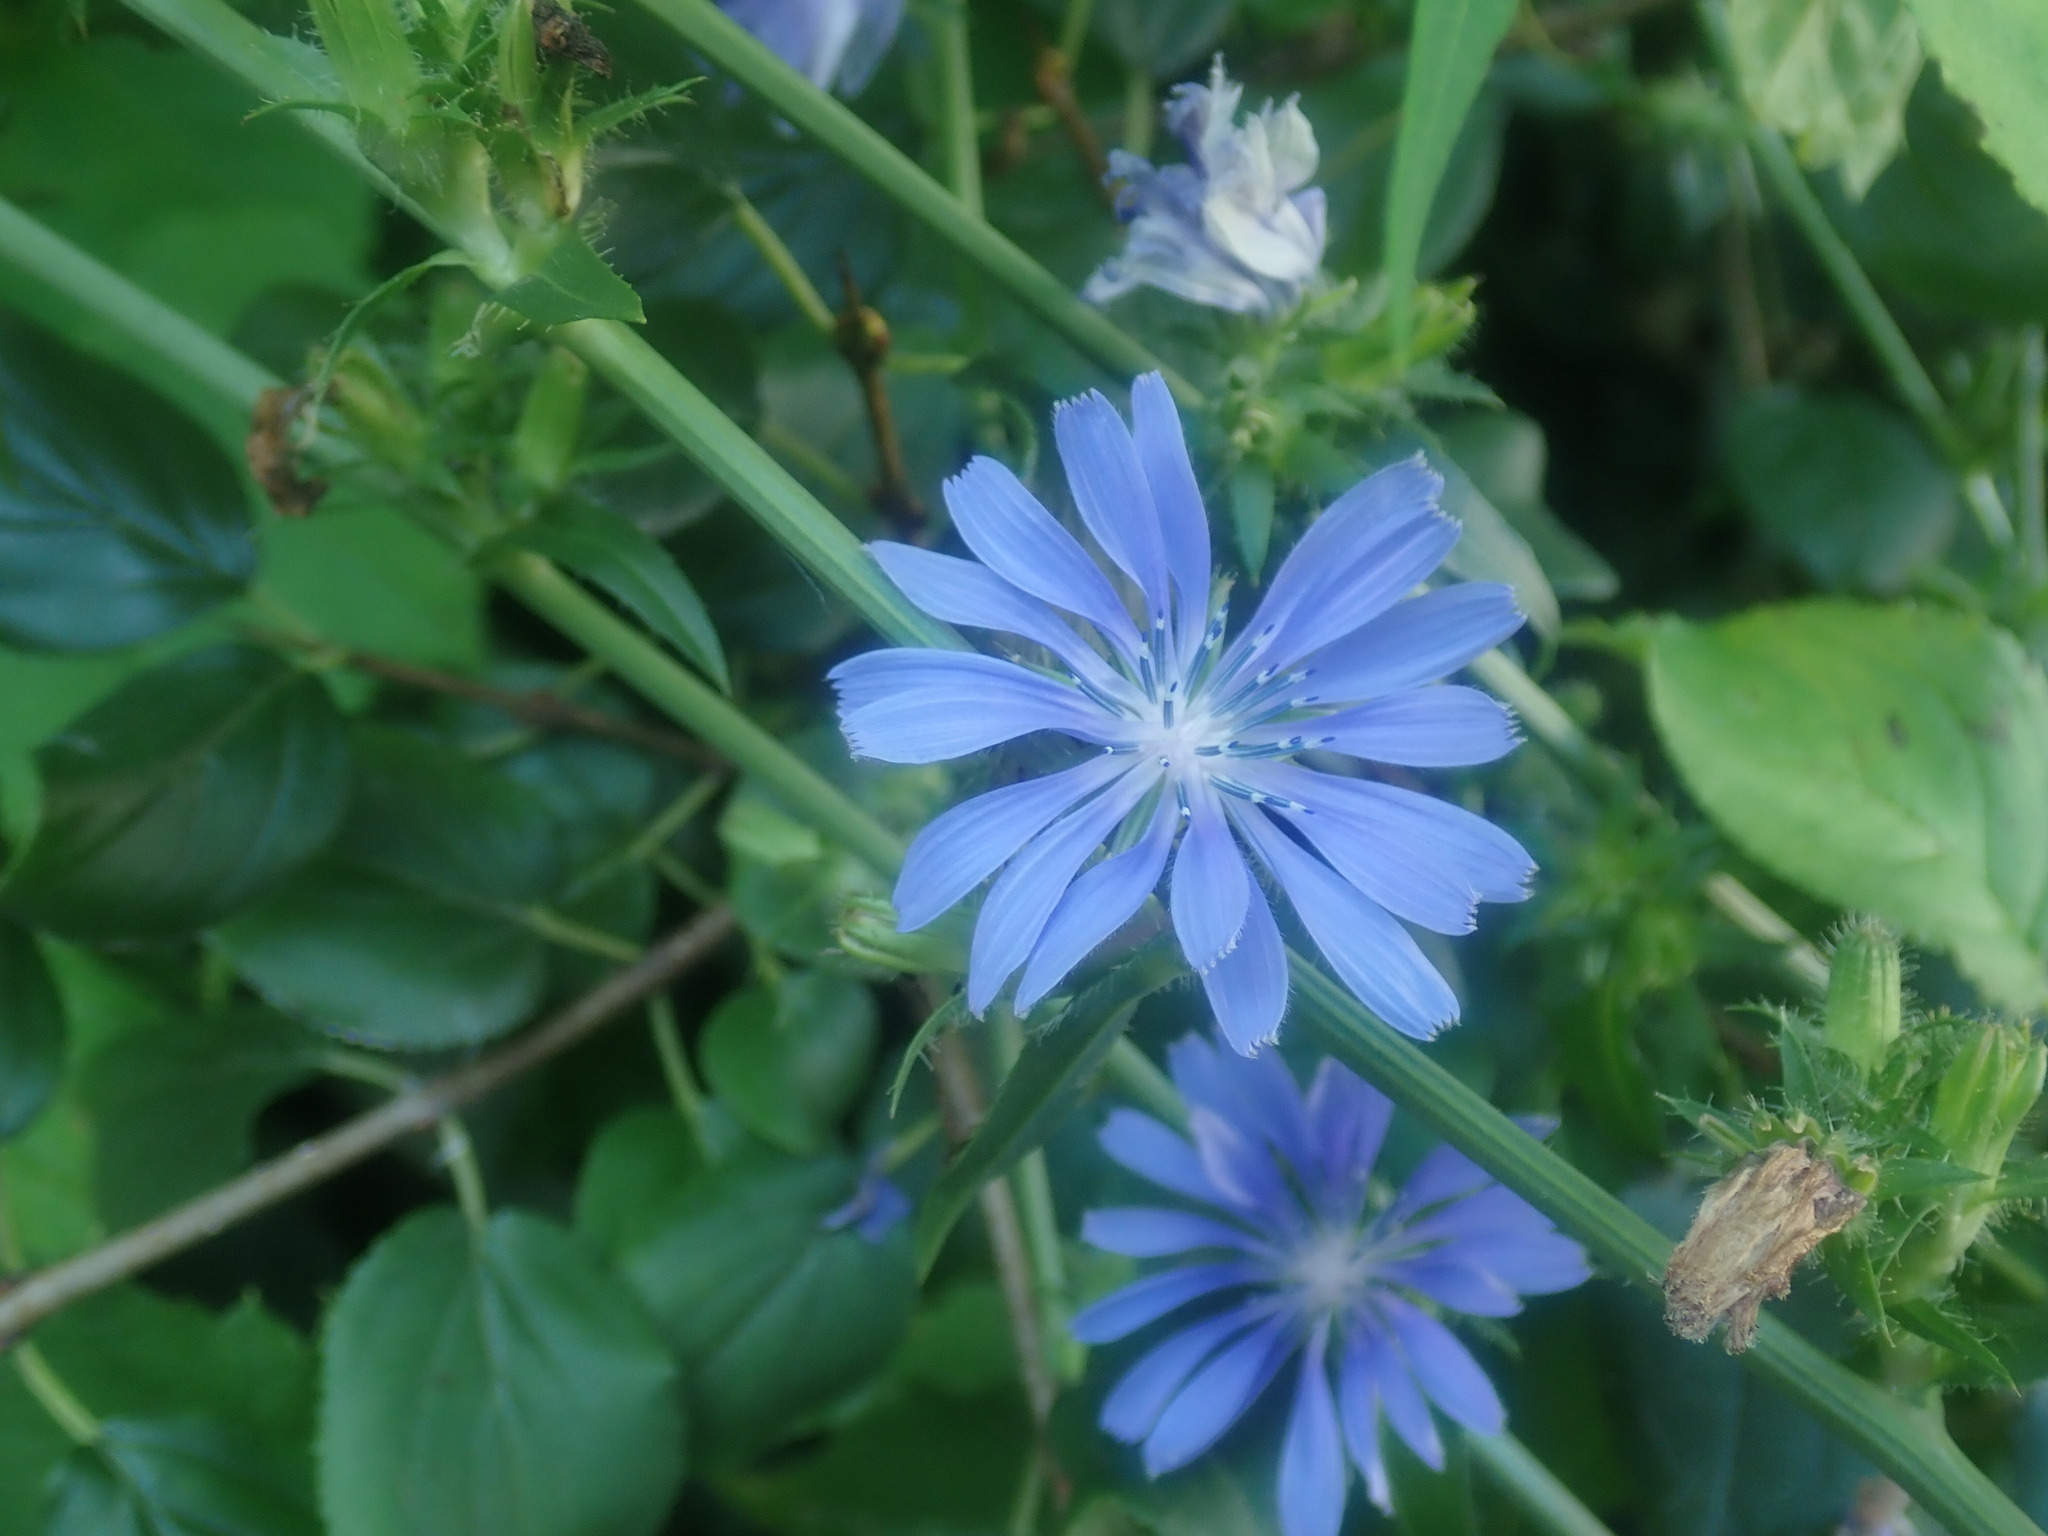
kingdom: Plantae
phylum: Tracheophyta
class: Magnoliopsida
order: Asterales
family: Asteraceae
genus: Cichorium
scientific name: Cichorium intybus
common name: Chicory
